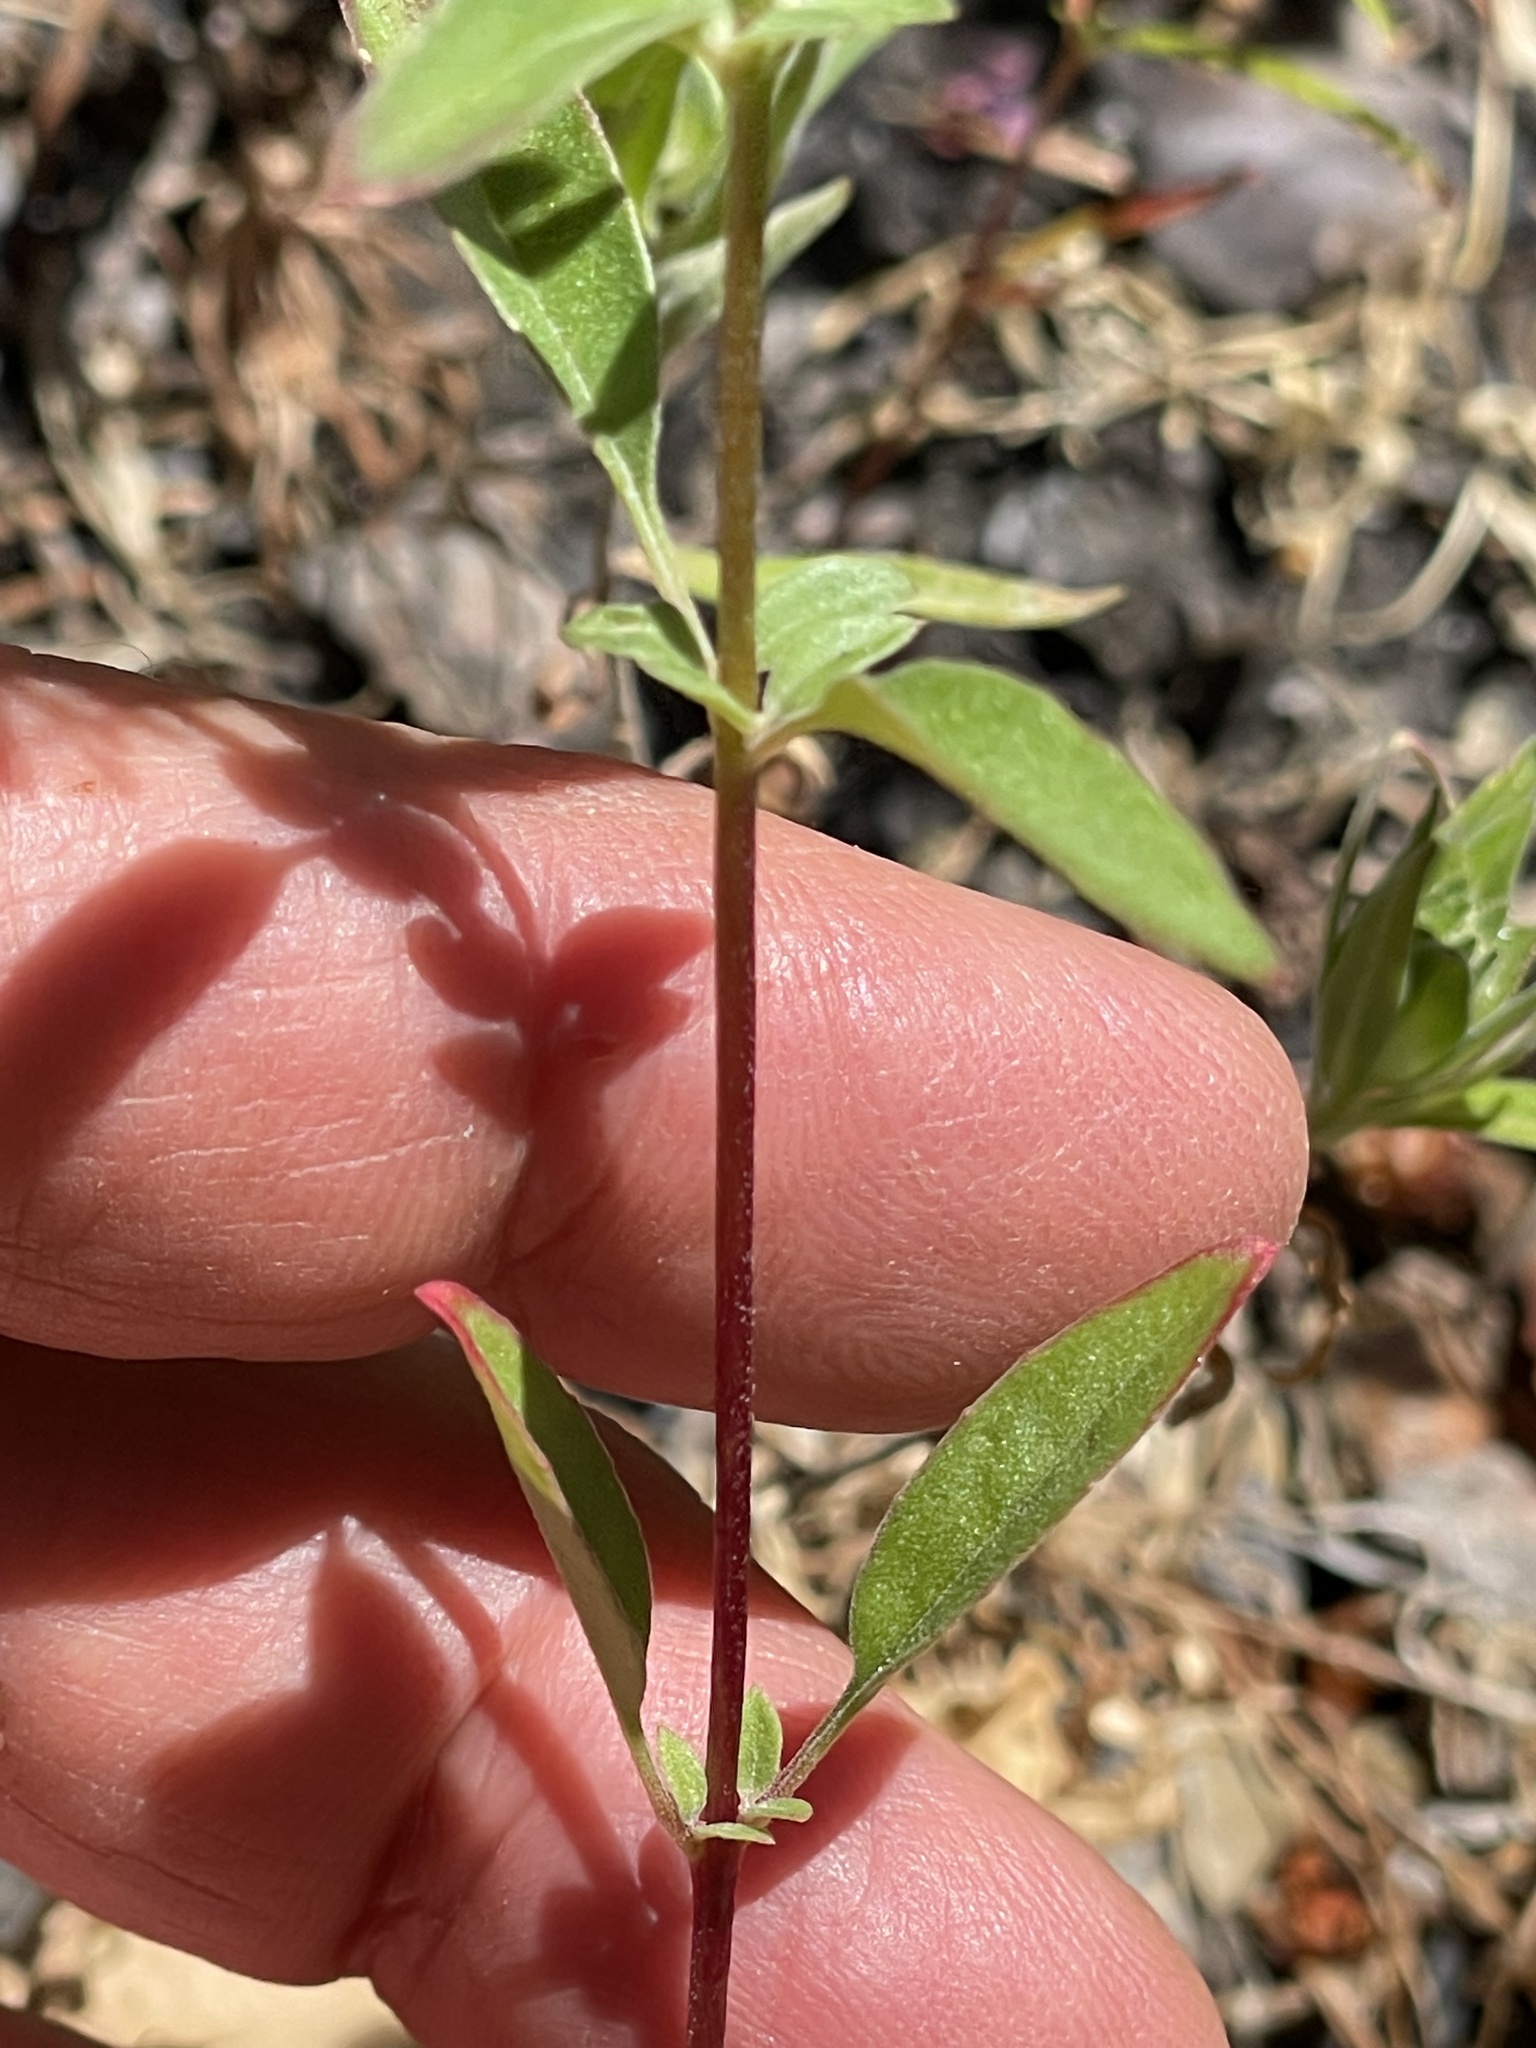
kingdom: Plantae
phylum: Tracheophyta
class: Magnoliopsida
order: Myrtales
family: Onagraceae
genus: Clarkia
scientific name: Clarkia rhomboidea
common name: Broadleaf clarkia
